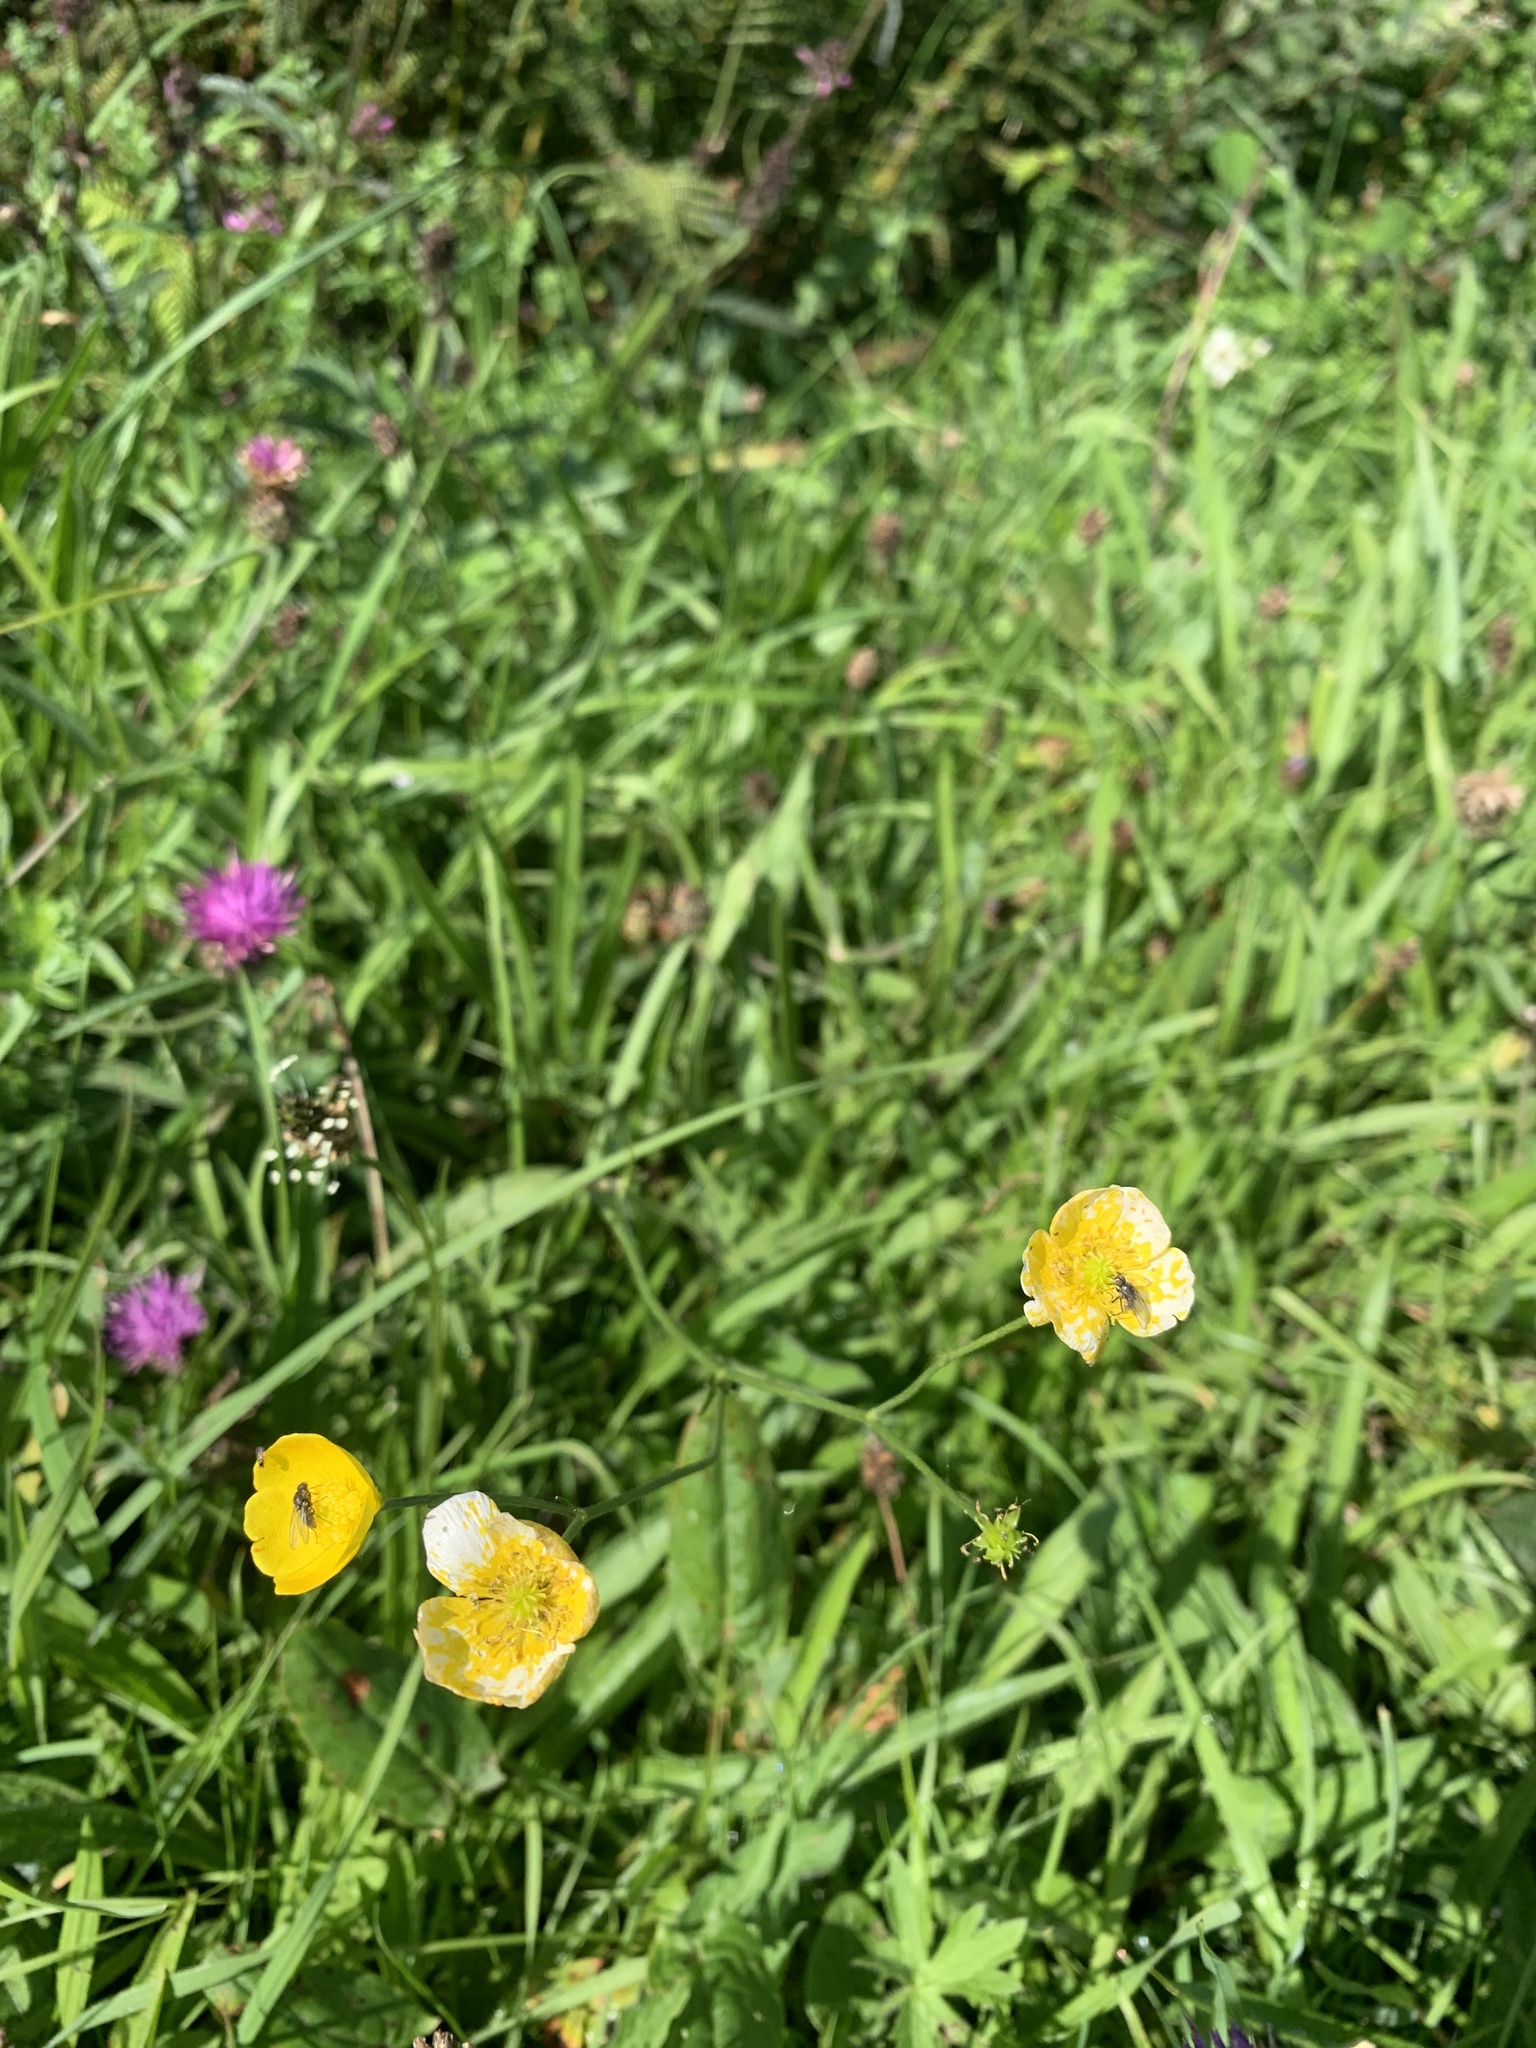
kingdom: Plantae
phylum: Tracheophyta
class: Magnoliopsida
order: Ranunculales
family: Ranunculaceae
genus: Ranunculus
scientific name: Ranunculus acris
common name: Meadow buttercup
